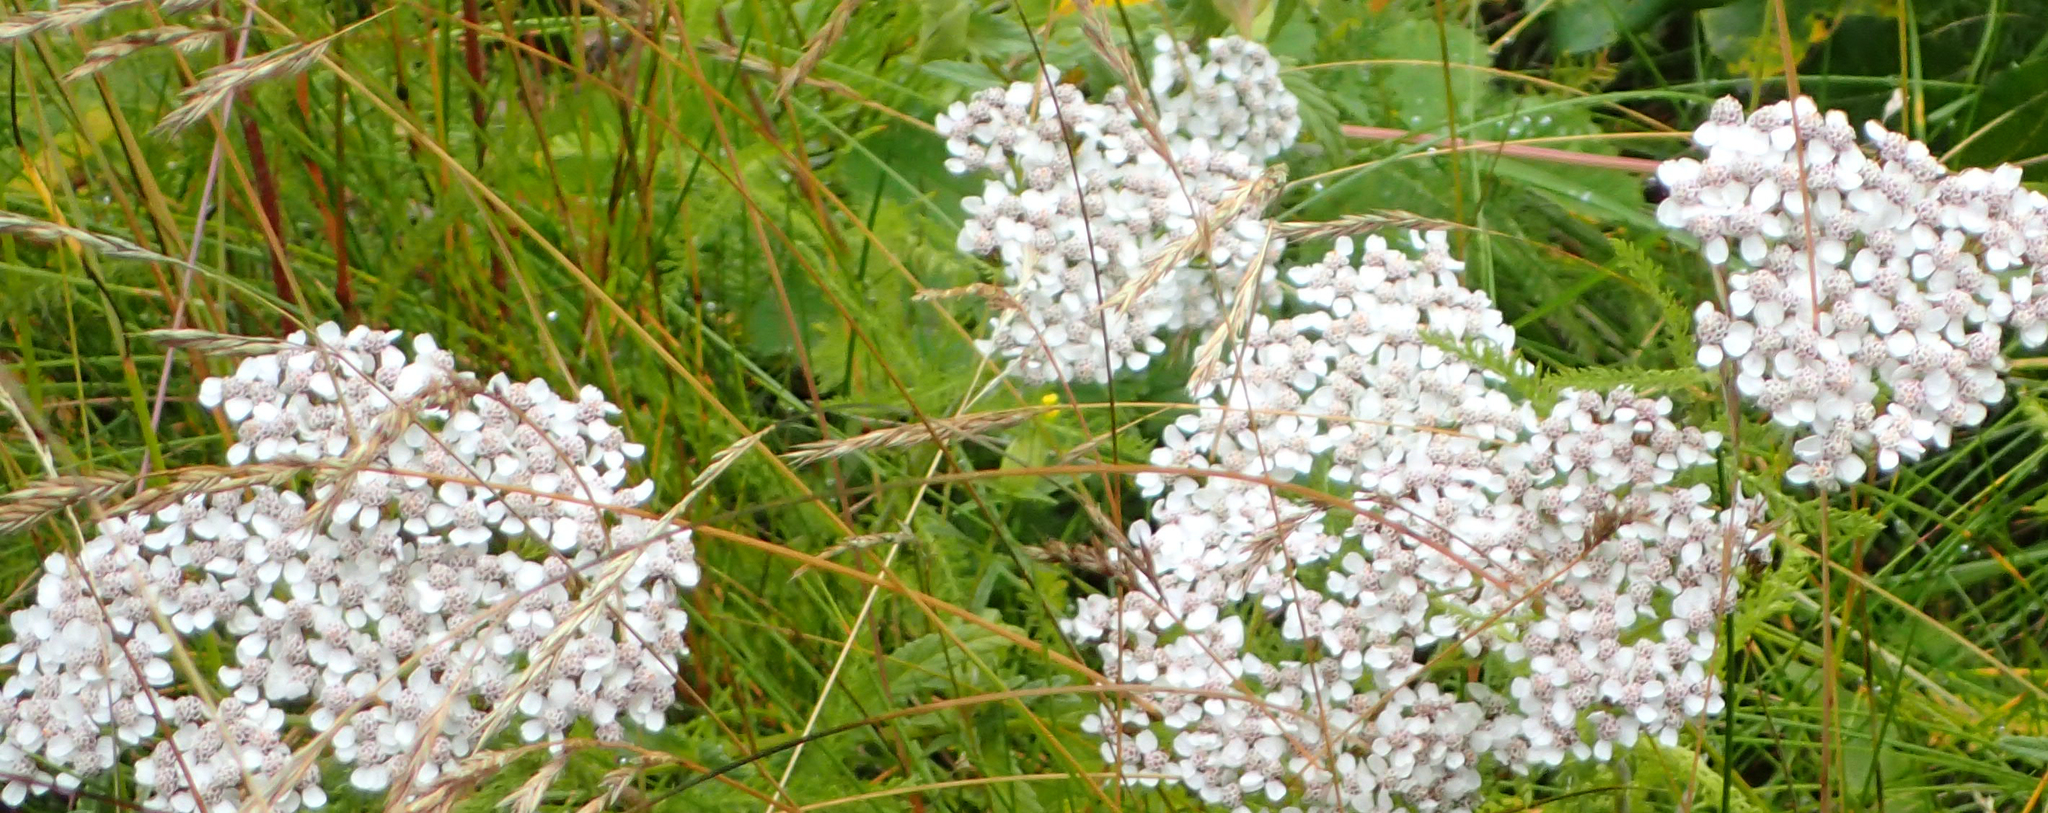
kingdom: Plantae
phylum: Tracheophyta
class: Magnoliopsida
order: Asterales
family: Asteraceae
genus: Achillea
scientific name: Achillea millefolium
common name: Yarrow
